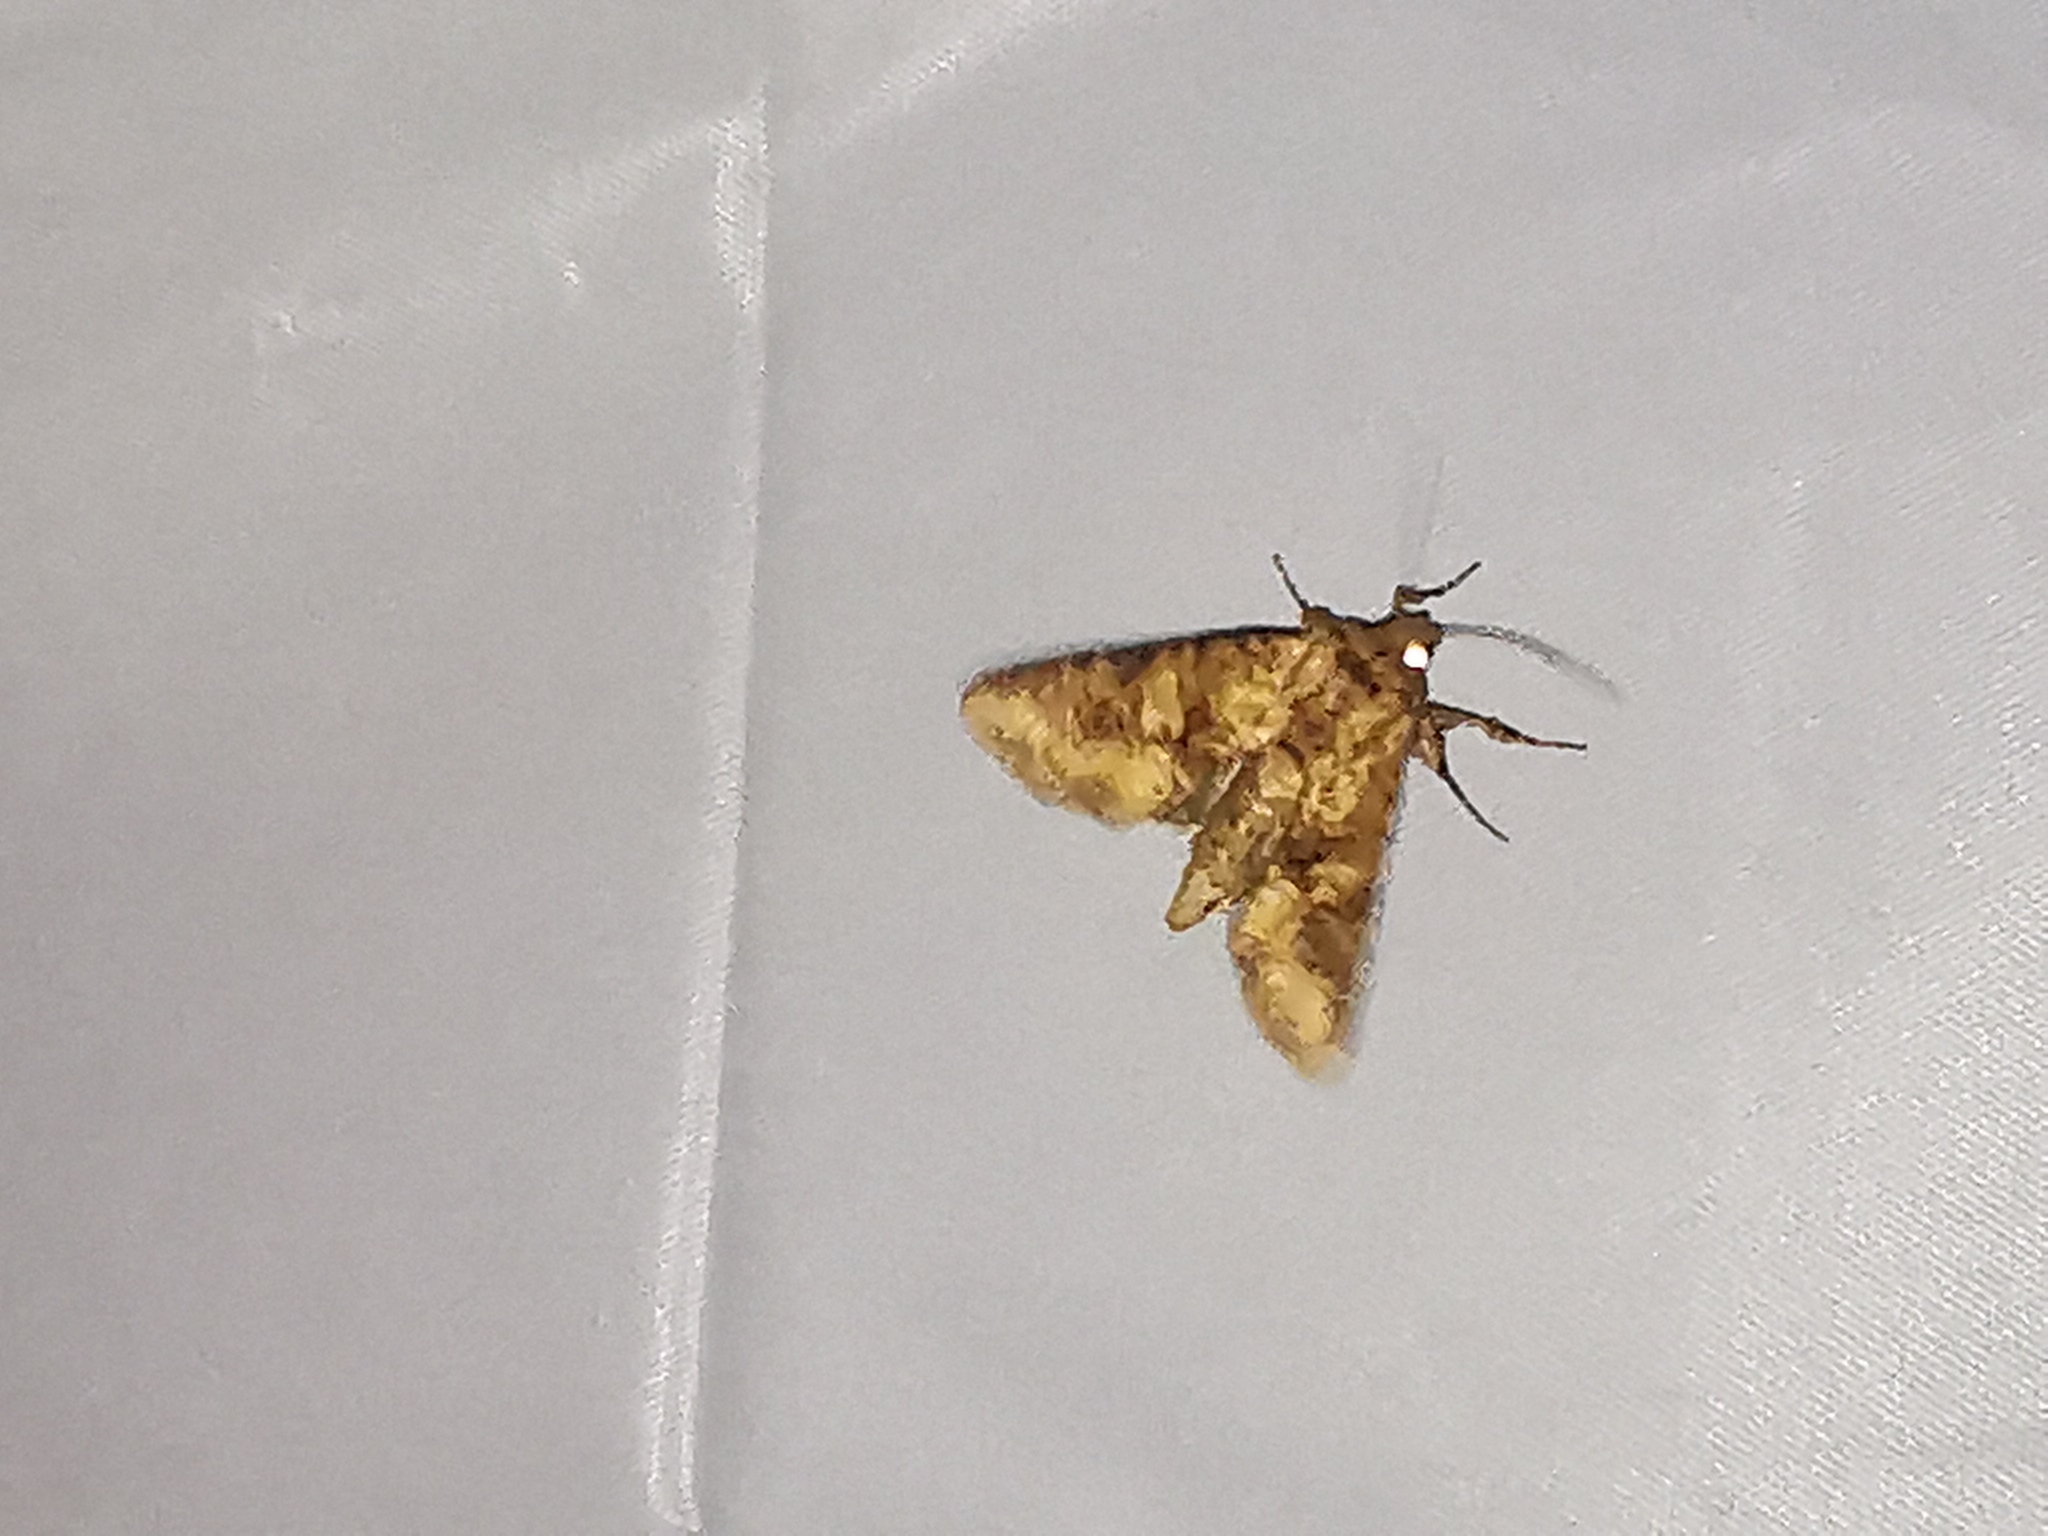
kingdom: Animalia
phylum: Arthropoda
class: Insecta
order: Lepidoptera
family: Noctuidae
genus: Conisania
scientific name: Conisania luteago
